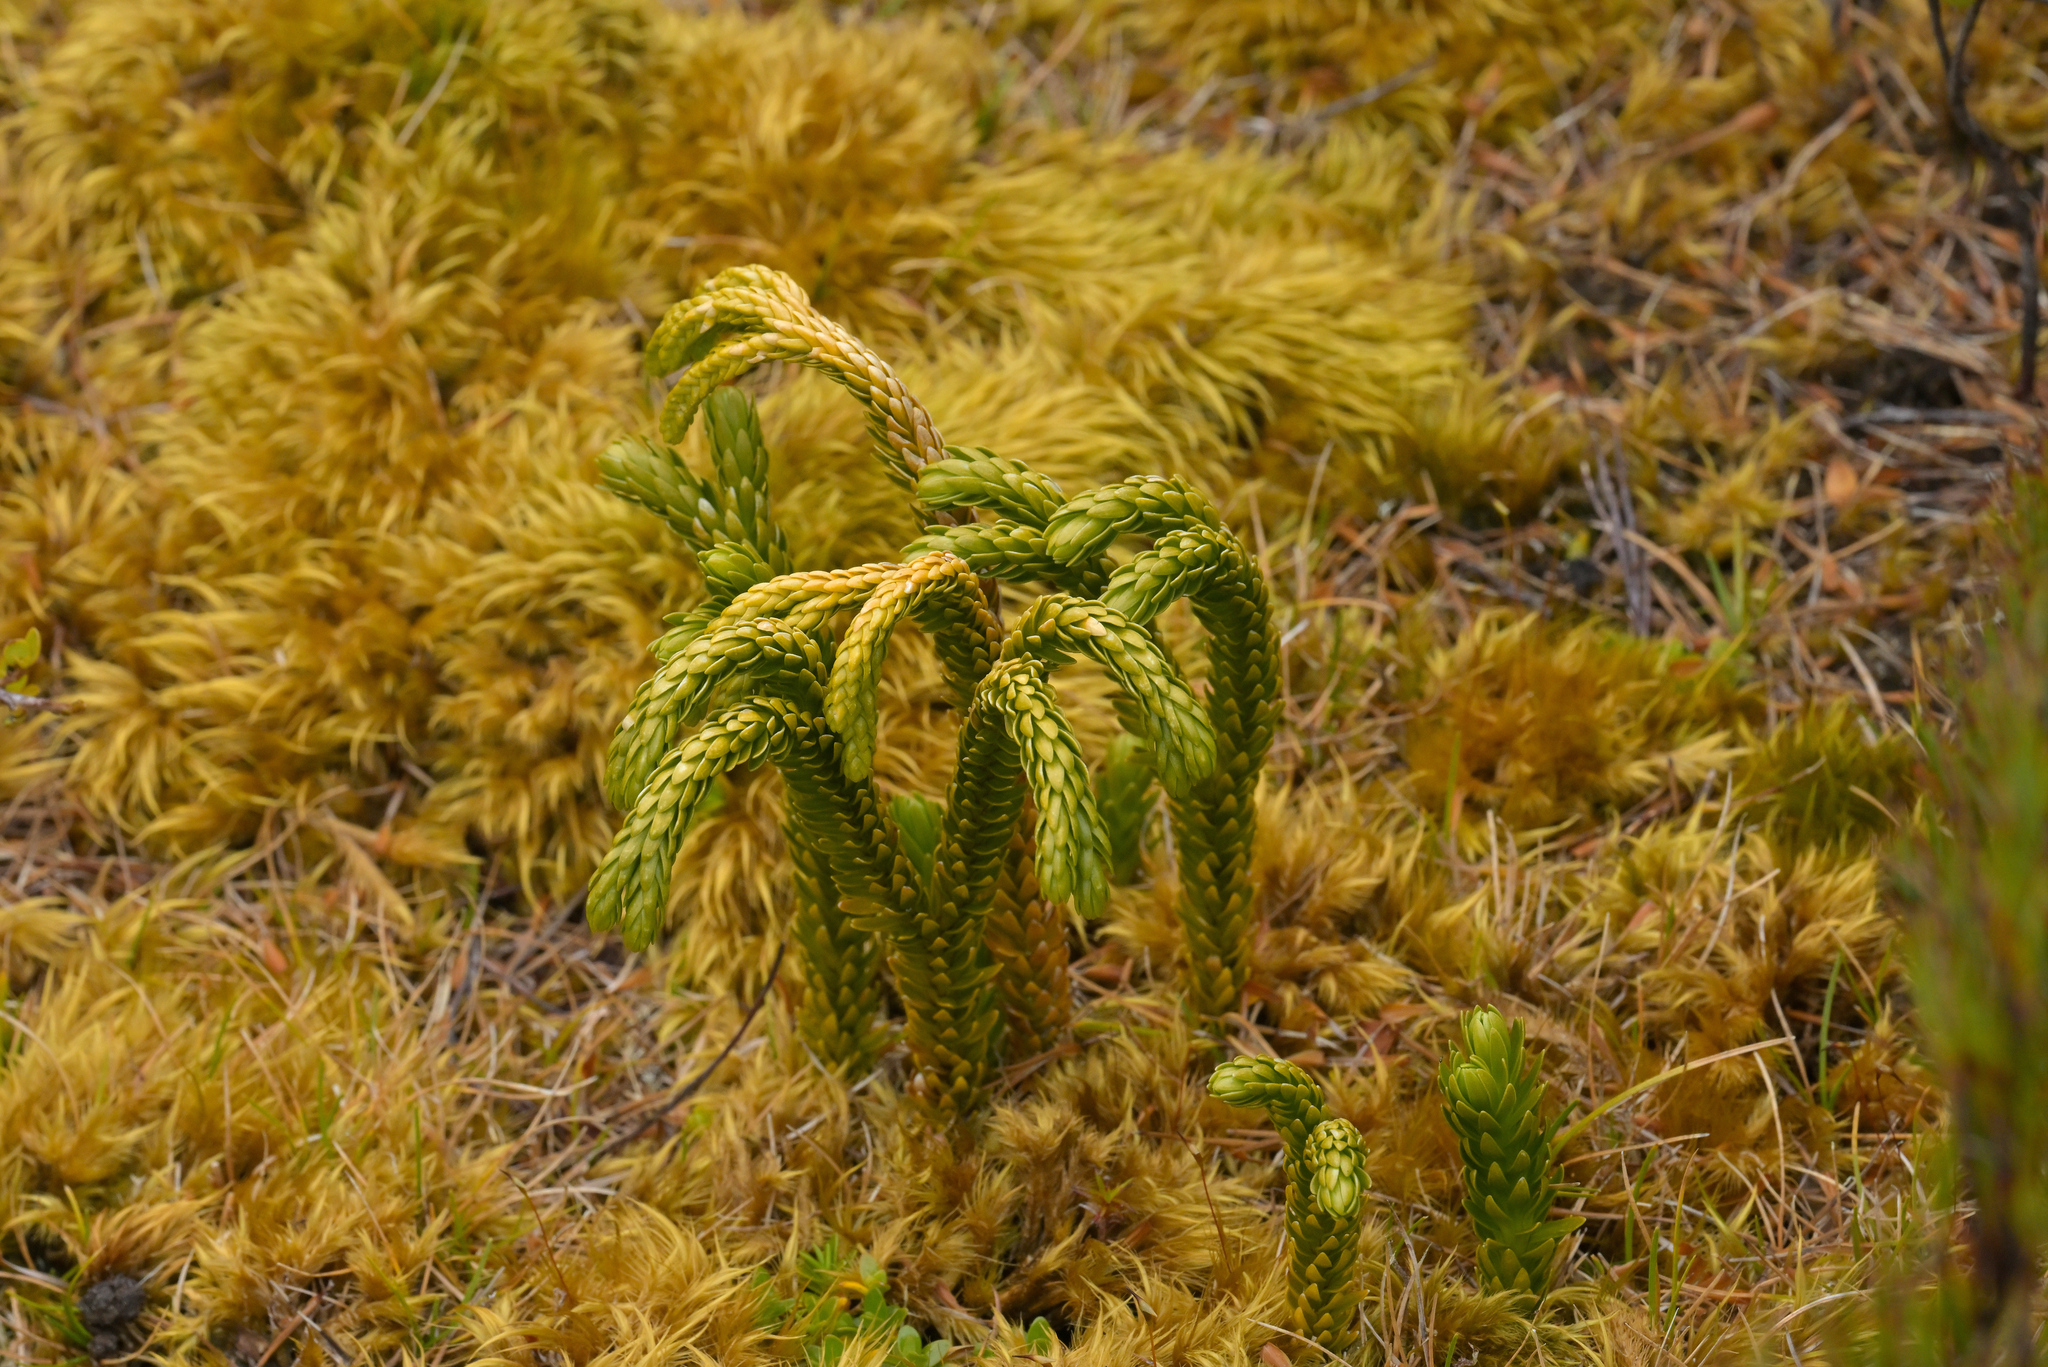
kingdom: Plantae
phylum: Tracheophyta
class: Lycopodiopsida
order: Lycopodiales
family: Lycopodiaceae
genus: Phlegmariurus
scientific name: Phlegmariurus varius
